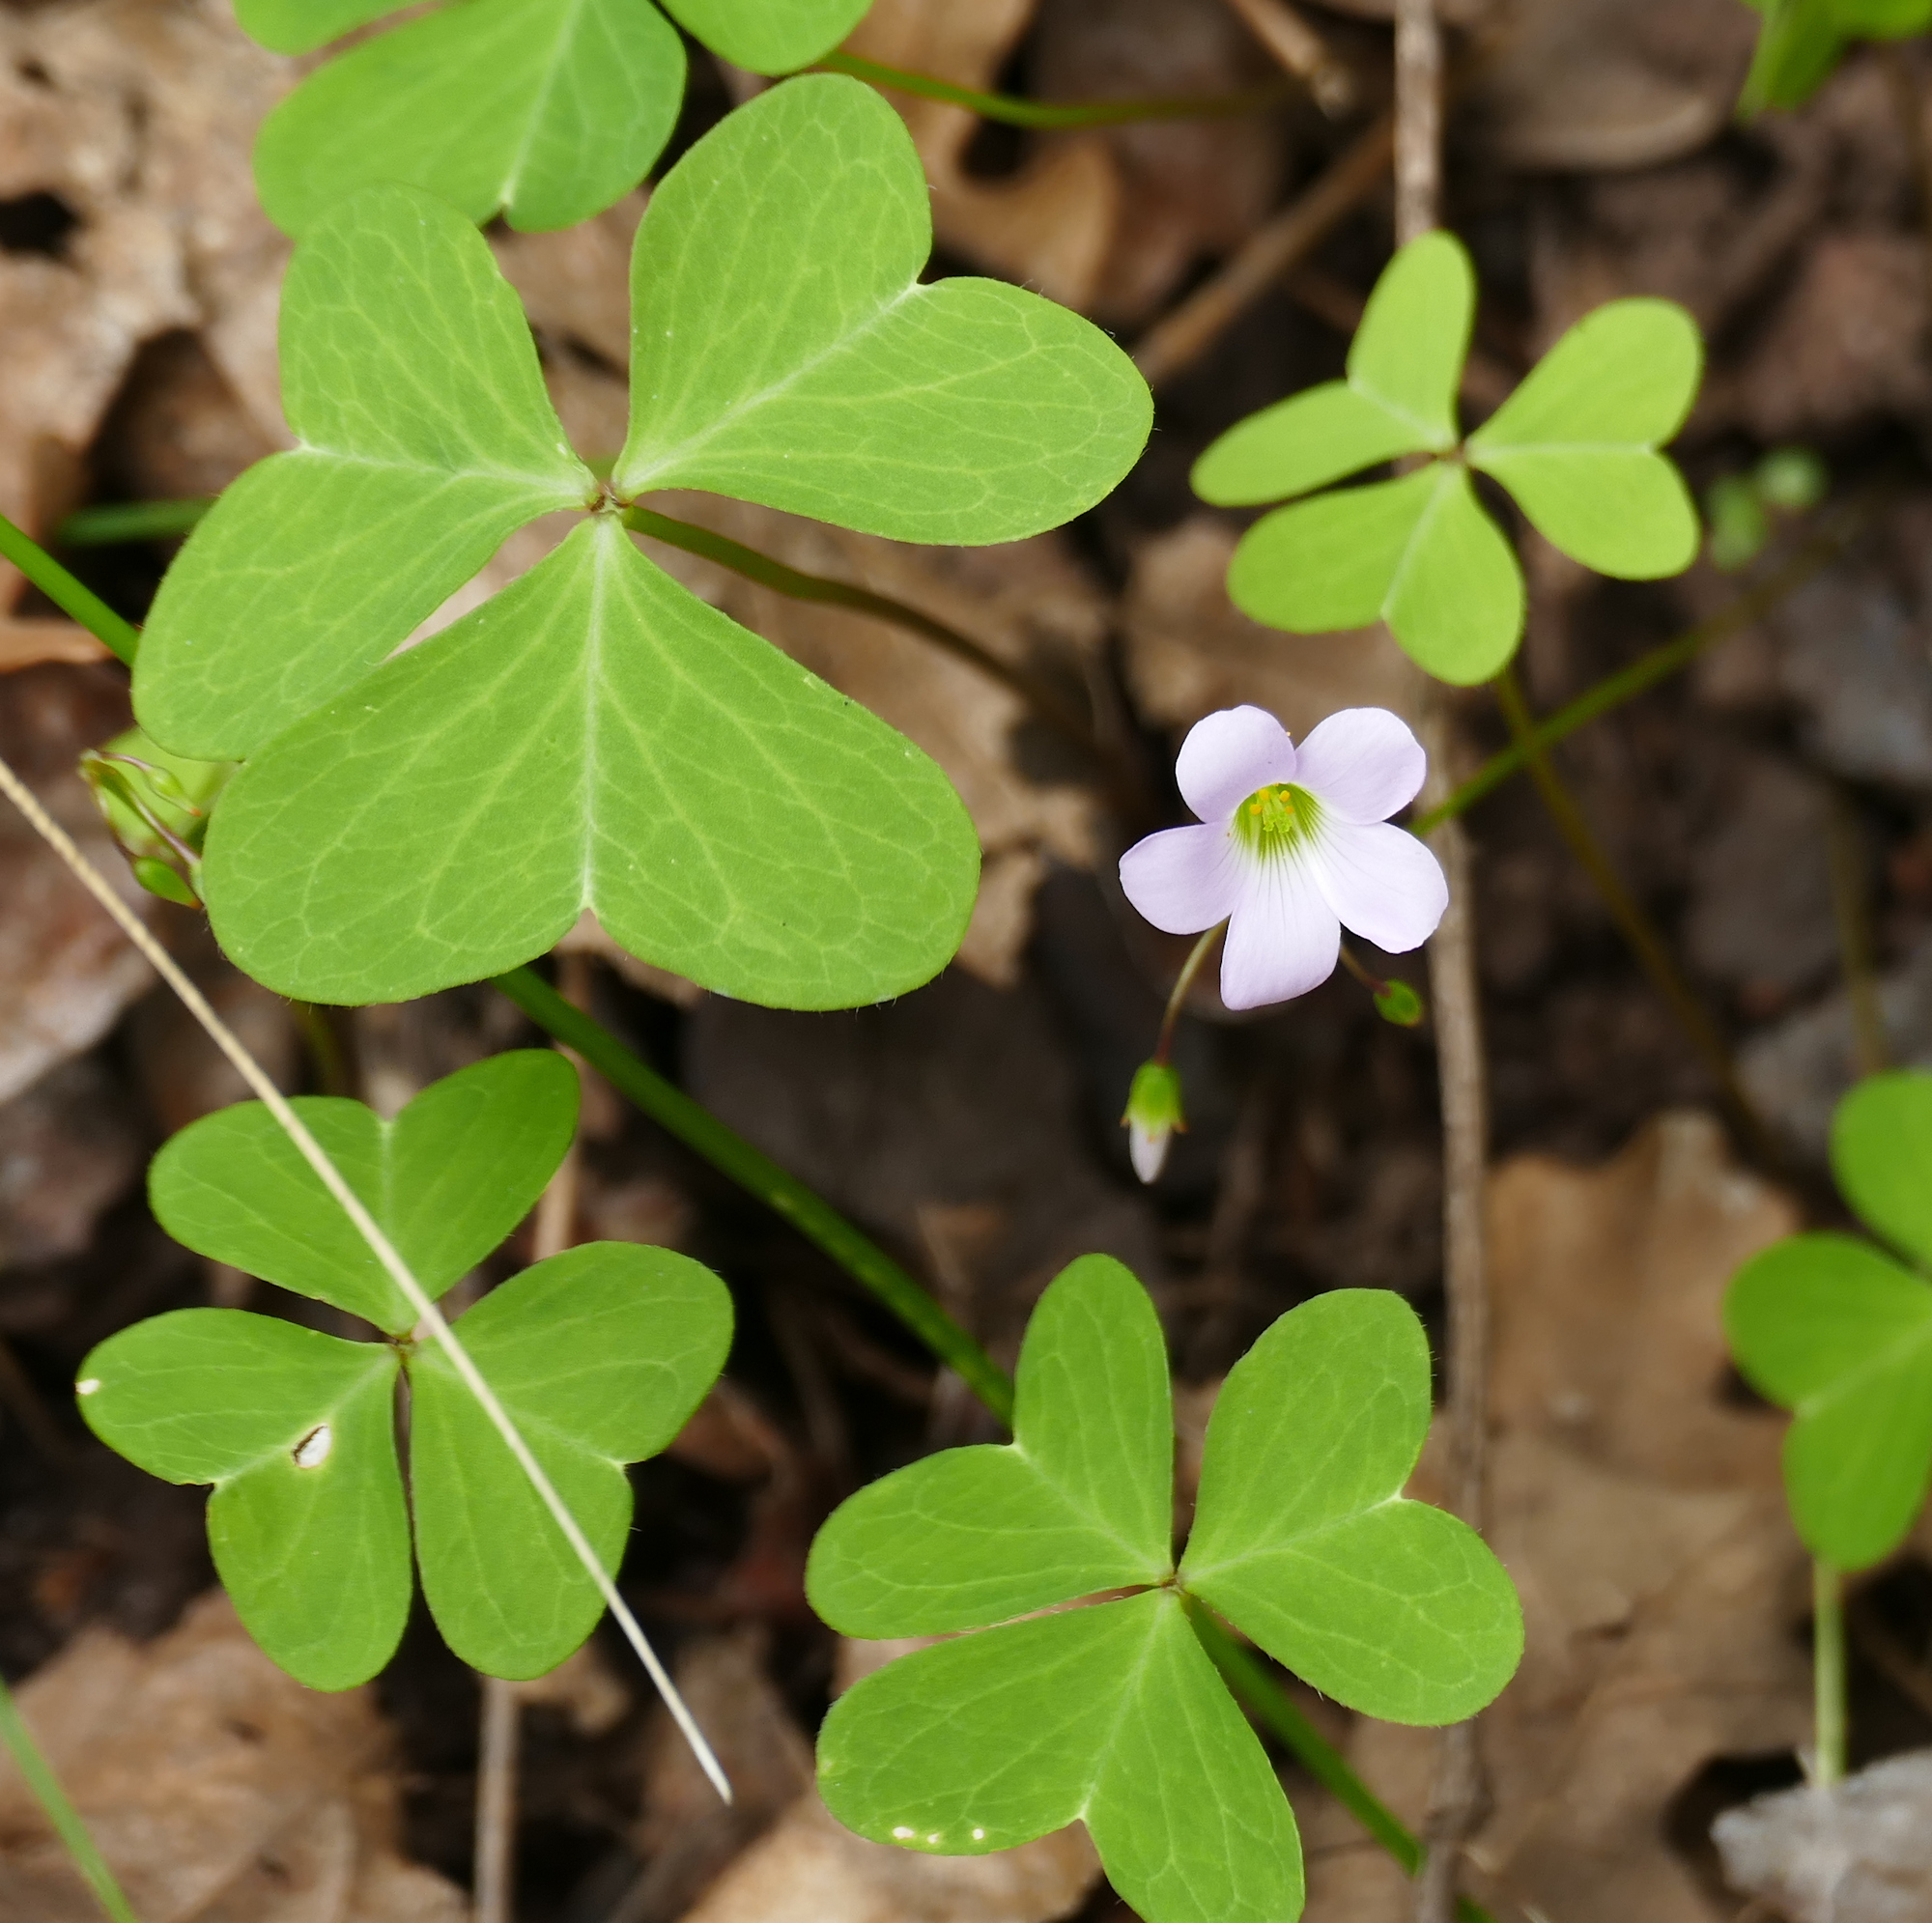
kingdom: Plantae
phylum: Tracheophyta
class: Magnoliopsida
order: Oxalidales
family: Oxalidaceae
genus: Oxalis
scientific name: Oxalis metcalfei
